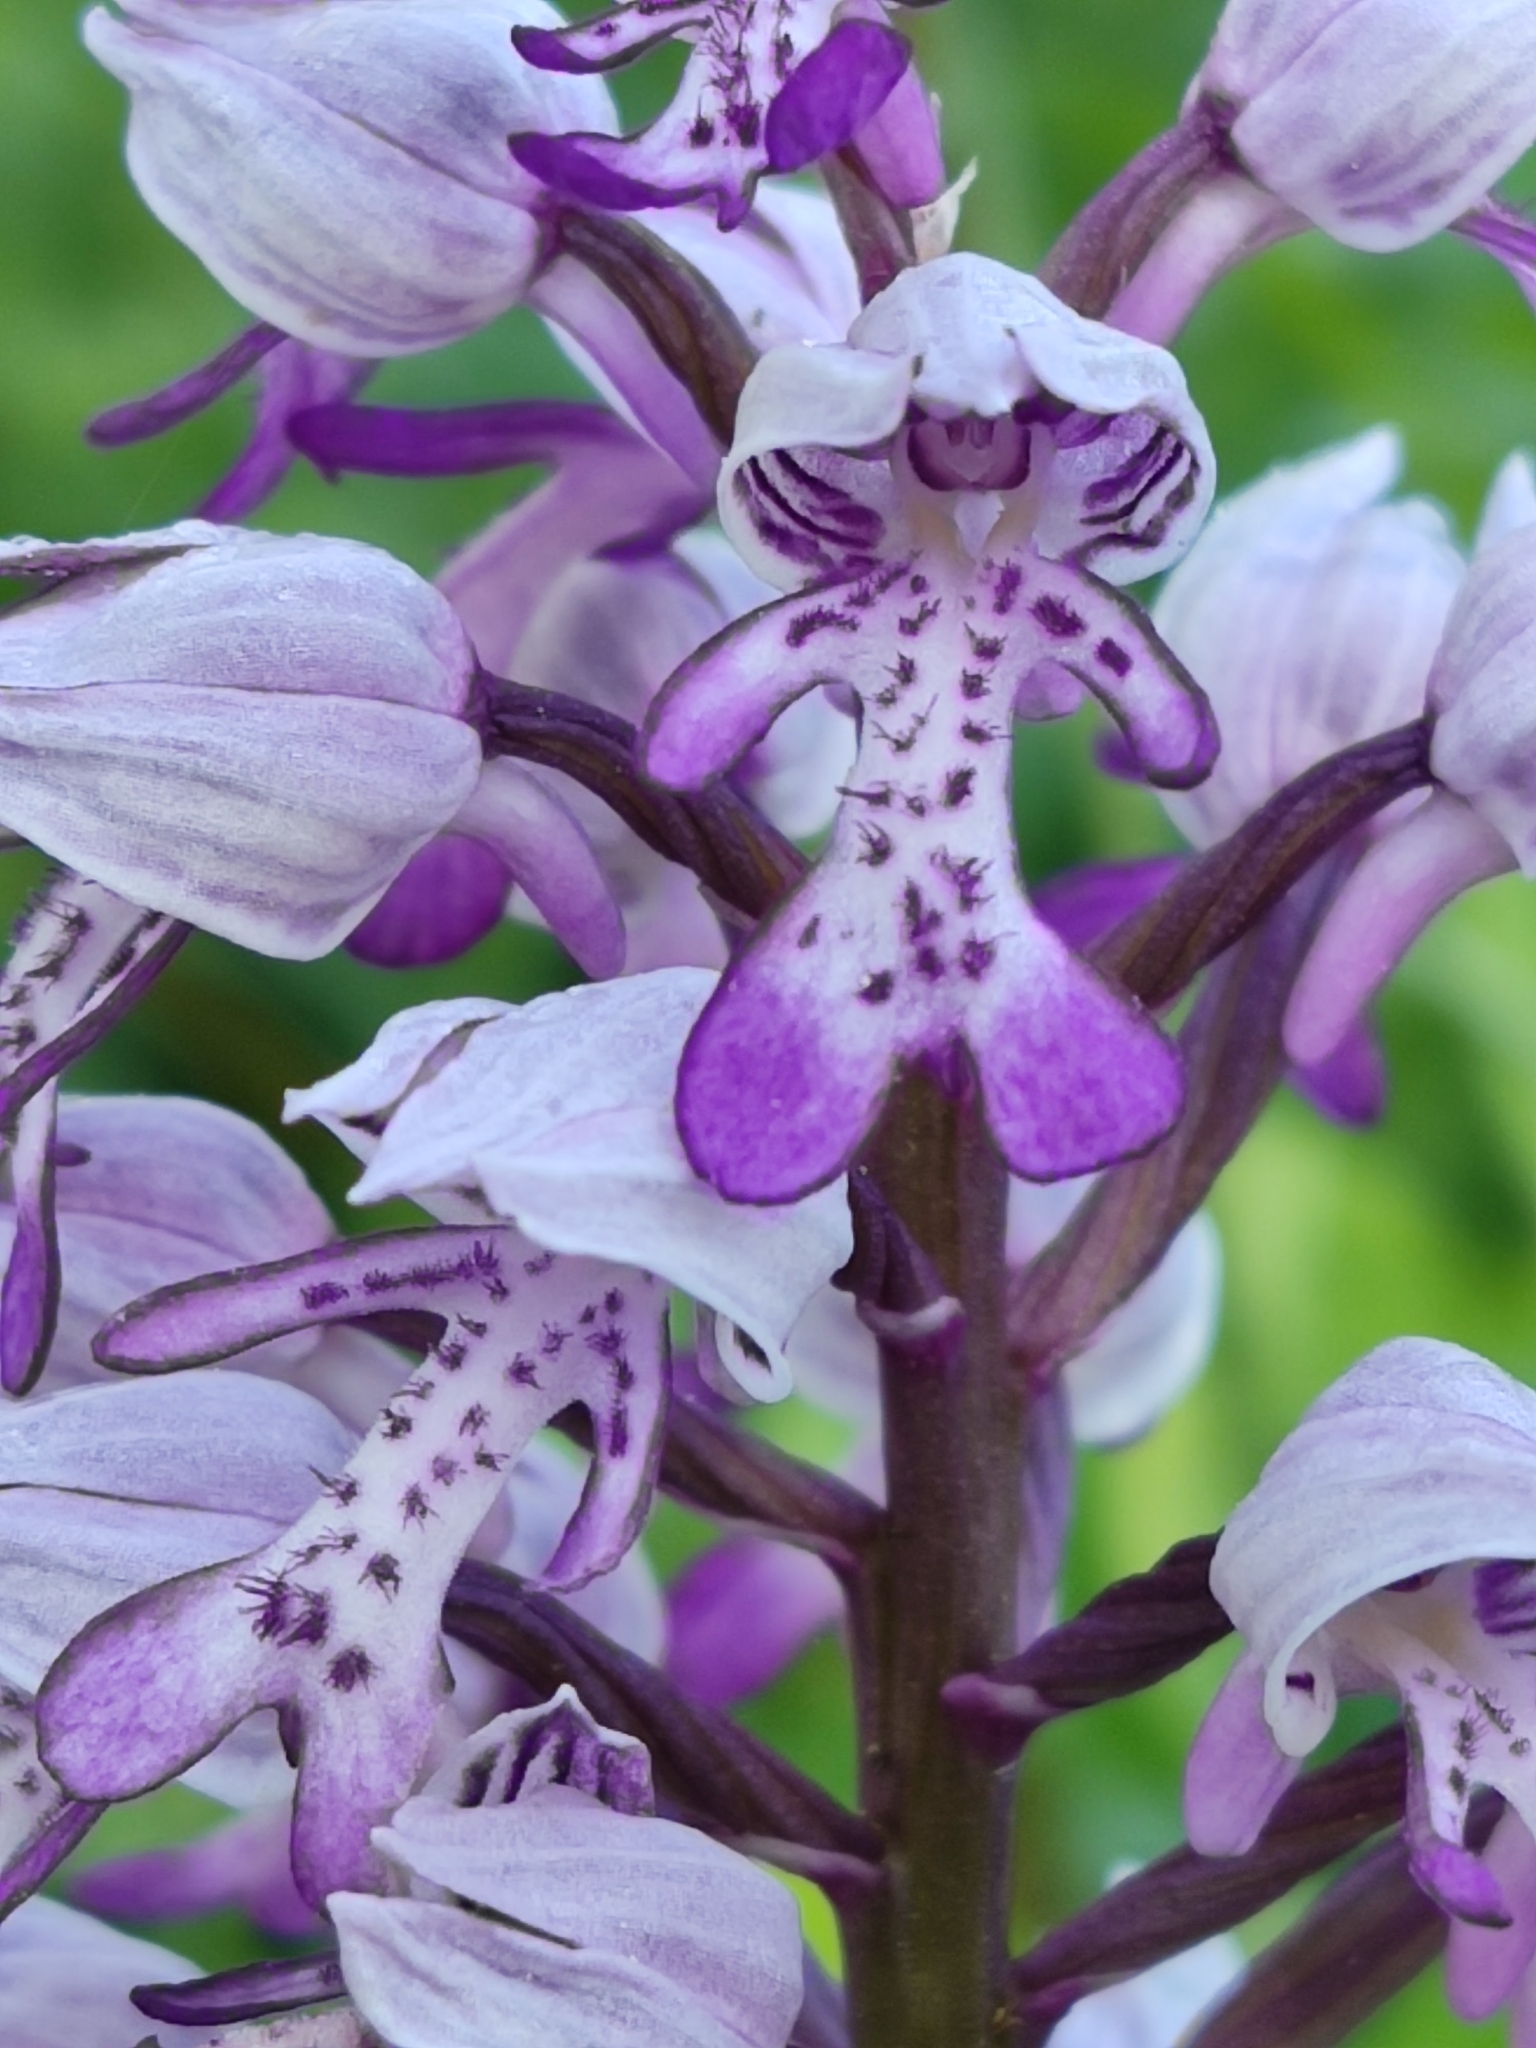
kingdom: Plantae
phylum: Tracheophyta
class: Liliopsida
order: Asparagales
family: Orchidaceae
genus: Orchis
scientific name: Orchis militaris
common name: Military orchid
